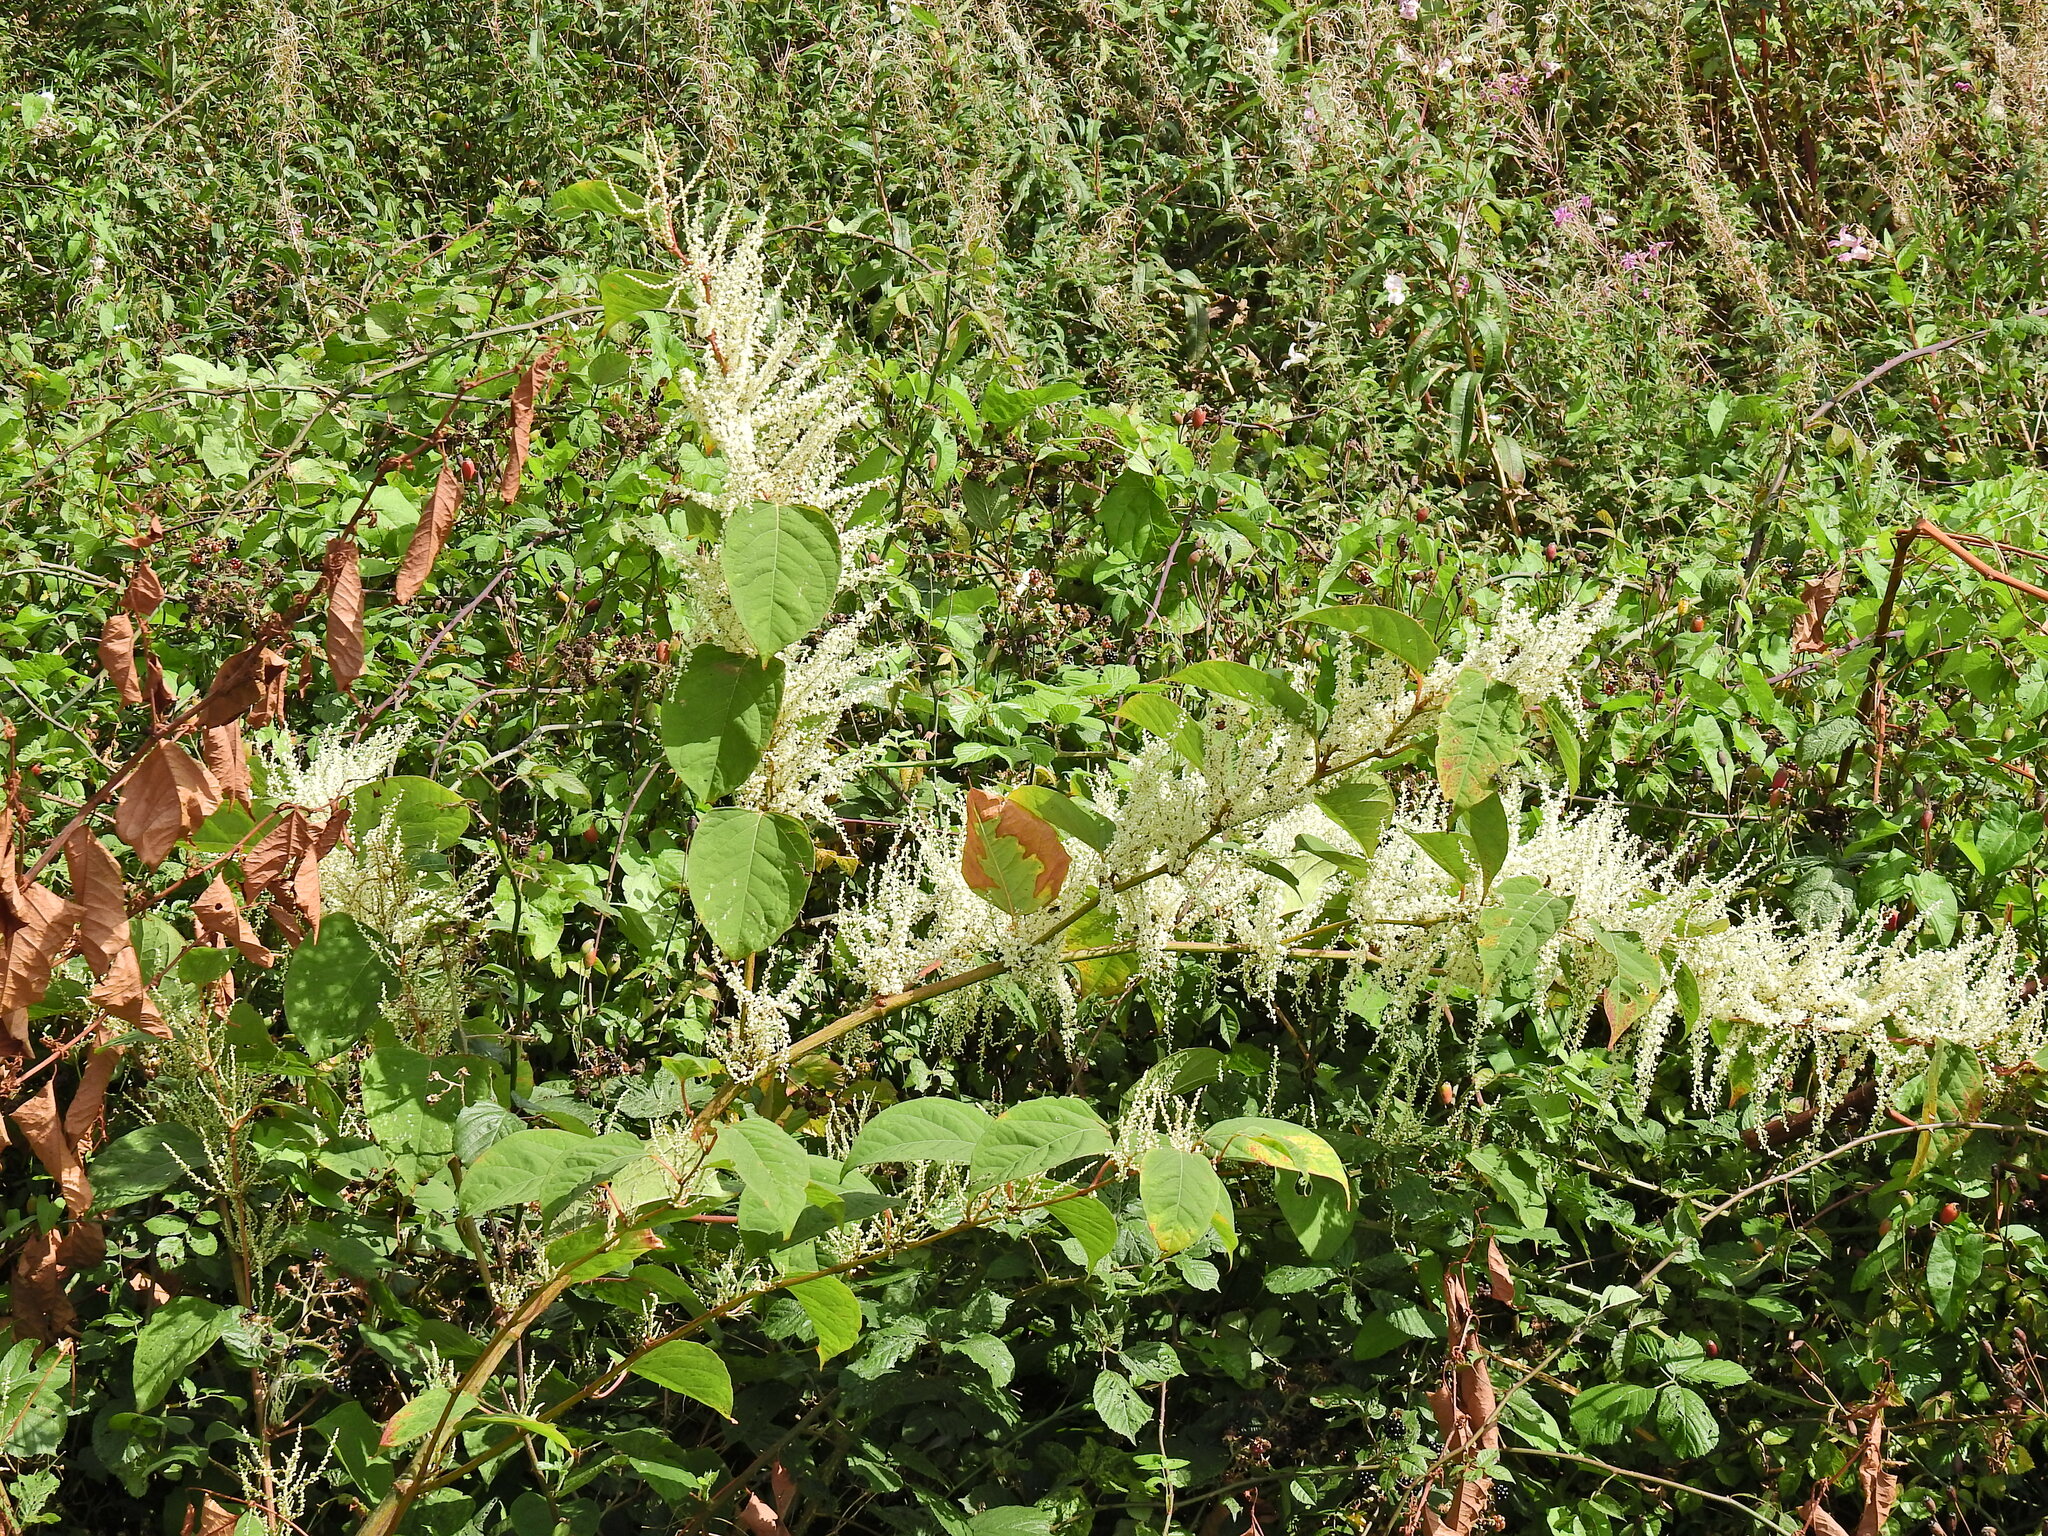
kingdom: Plantae
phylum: Tracheophyta
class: Magnoliopsida
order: Caryophyllales
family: Polygonaceae
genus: Reynoutria
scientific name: Reynoutria japonica
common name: Japanese knotweed
